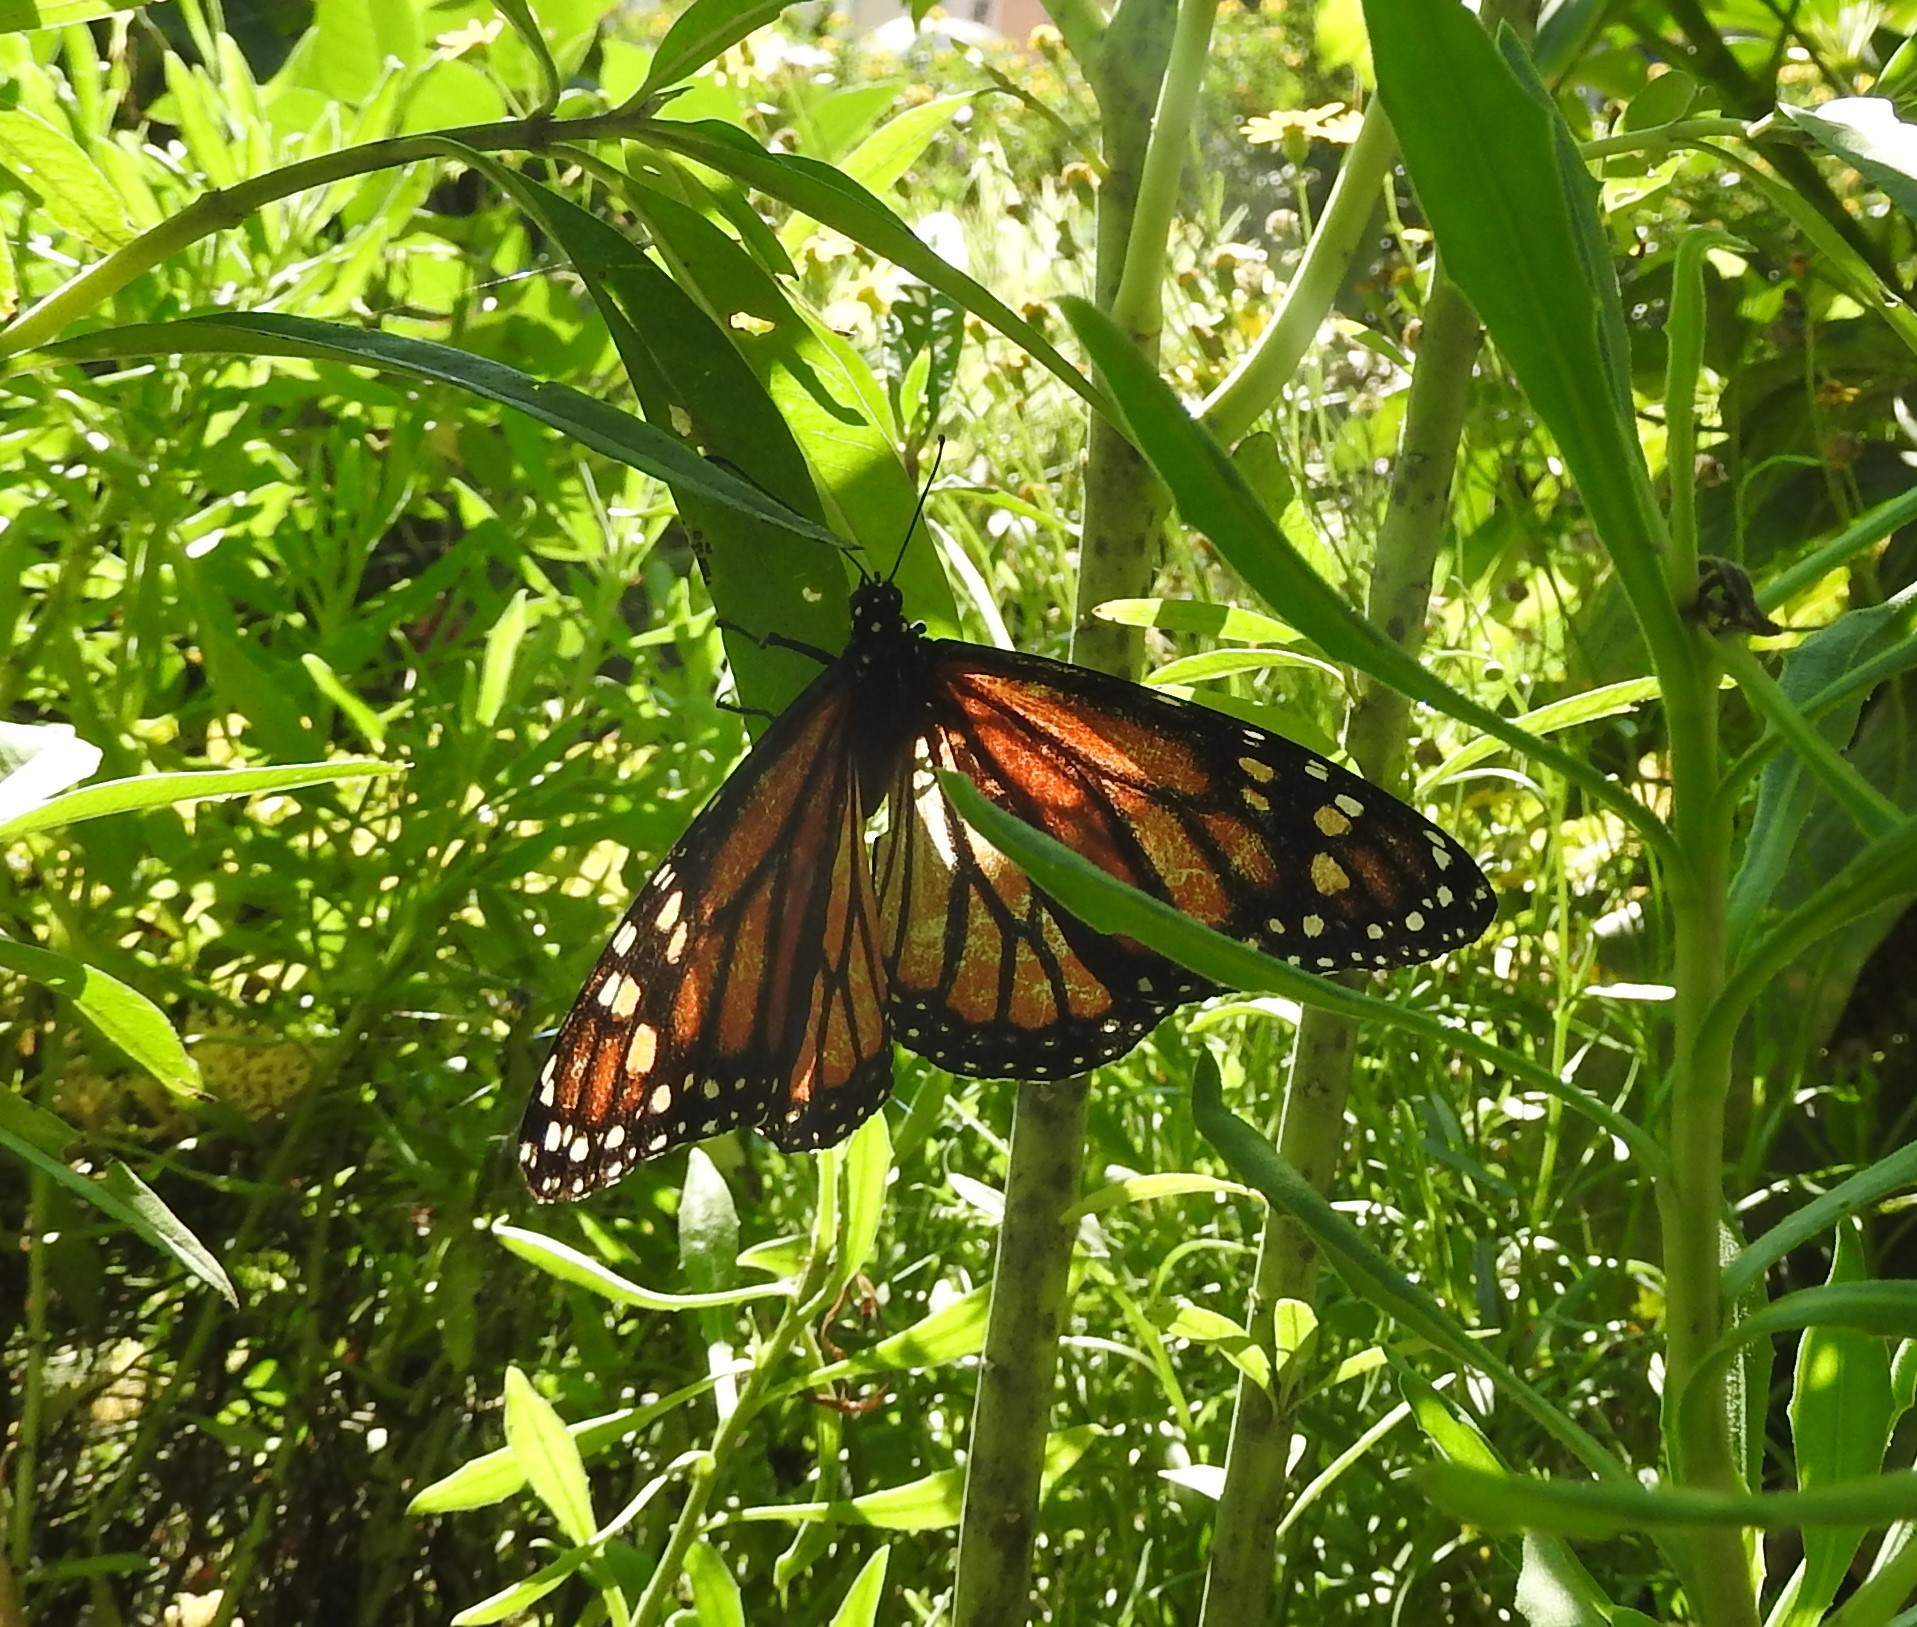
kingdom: Animalia
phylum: Arthropoda
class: Insecta
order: Lepidoptera
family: Nymphalidae
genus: Danaus
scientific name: Danaus plexippus
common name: Monarch
